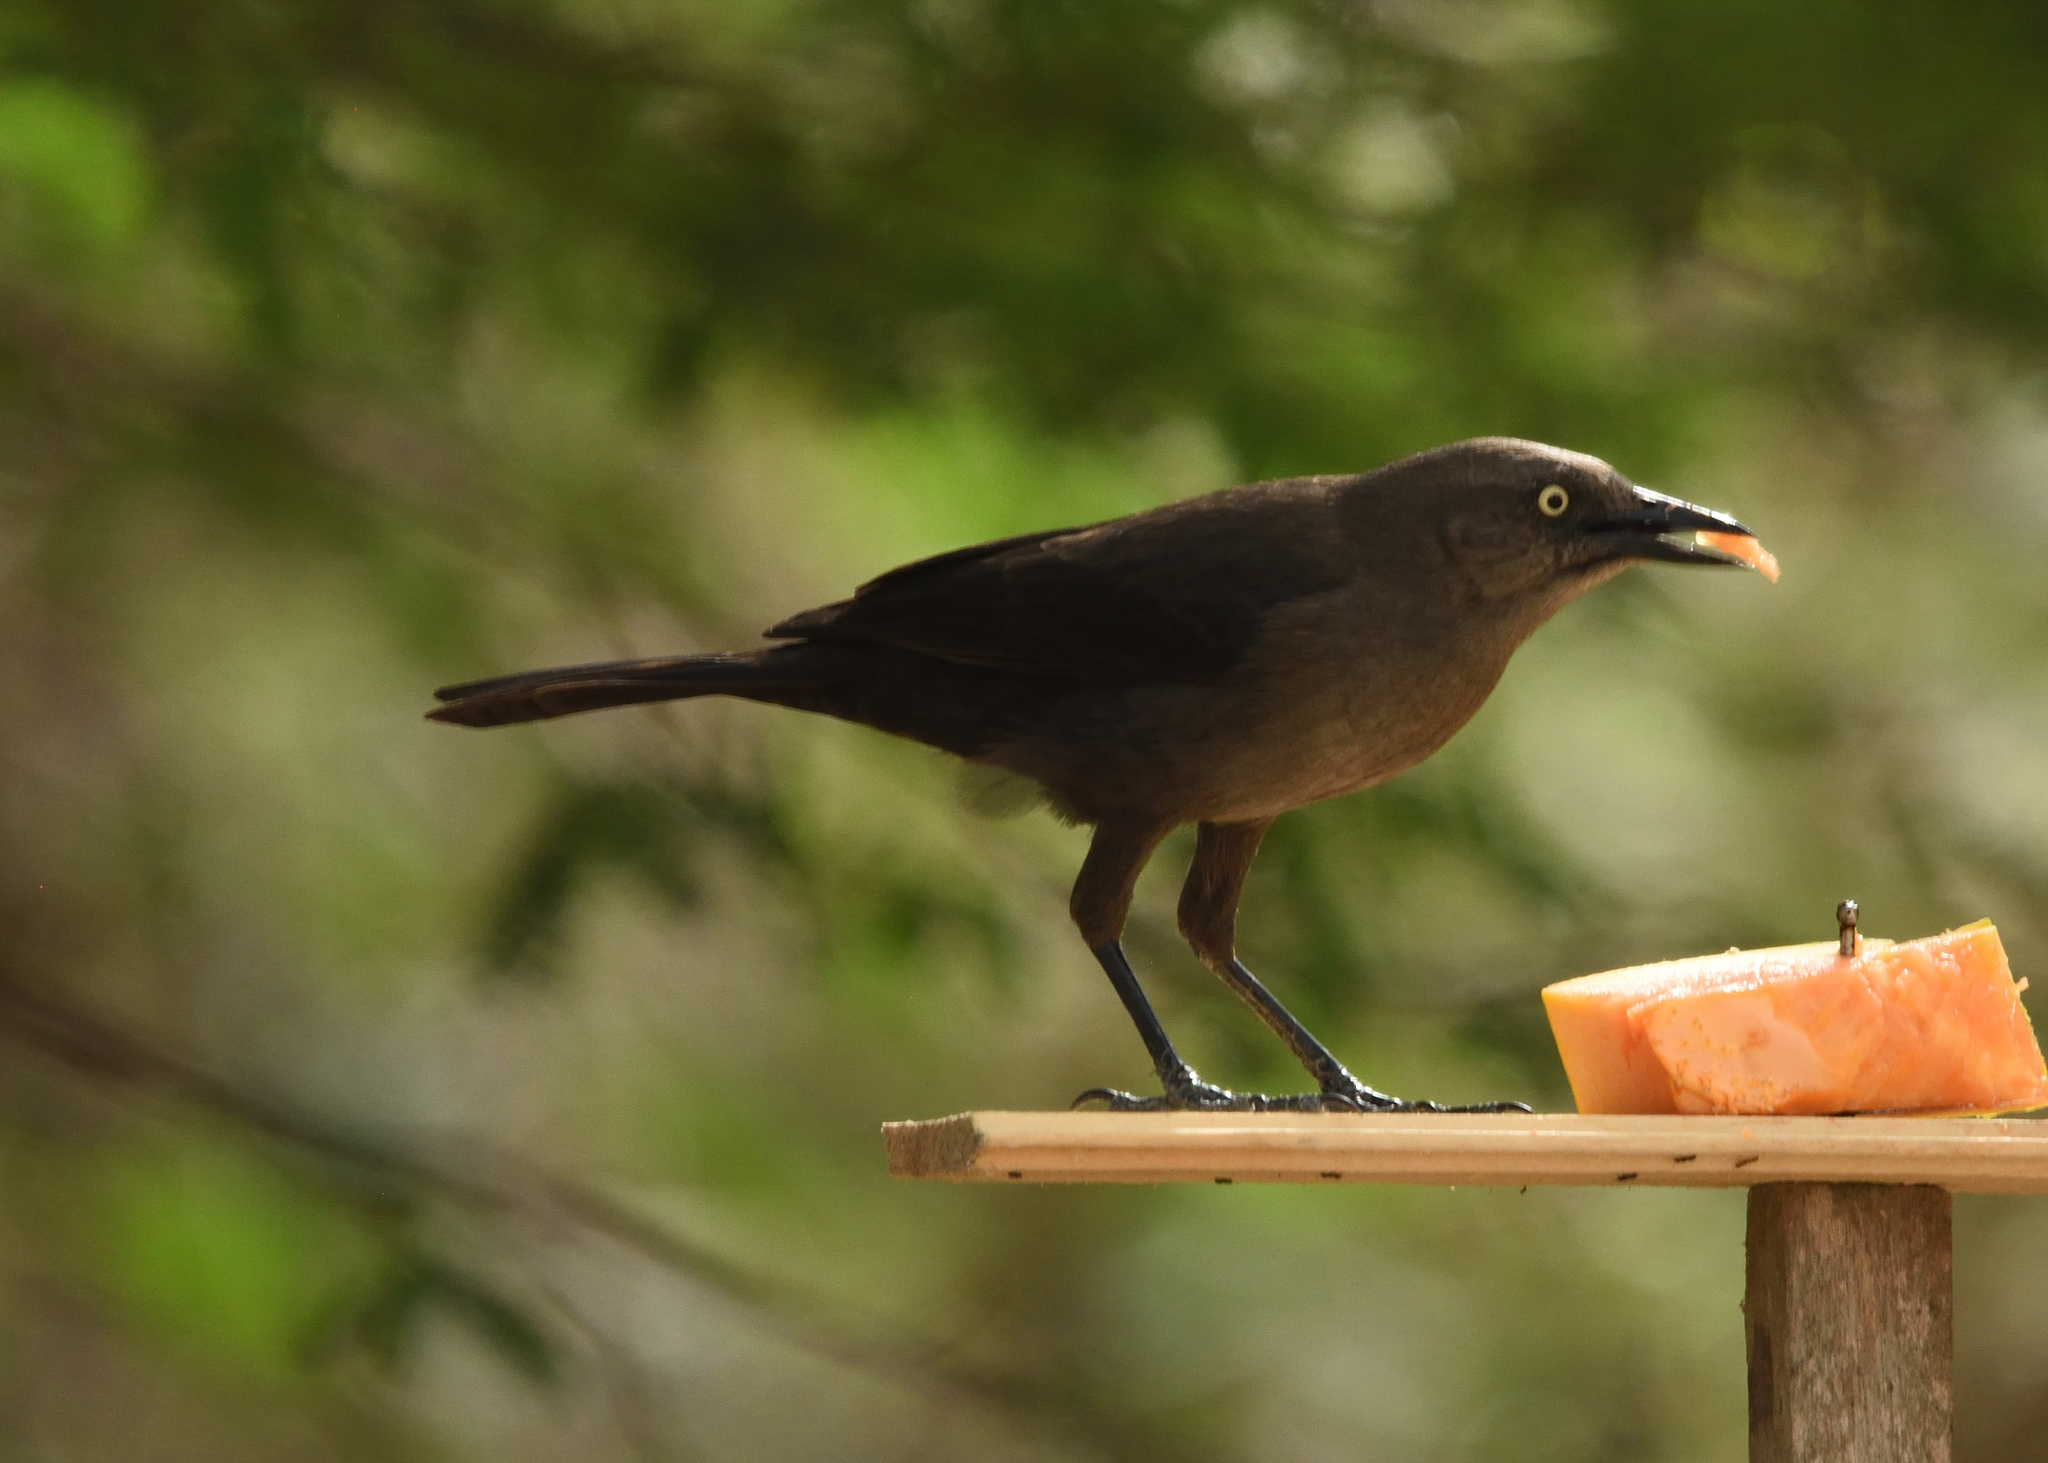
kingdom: Animalia
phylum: Chordata
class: Aves
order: Passeriformes
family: Icteridae
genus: Quiscalus
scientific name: Quiscalus lugubris
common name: Carib grackle
